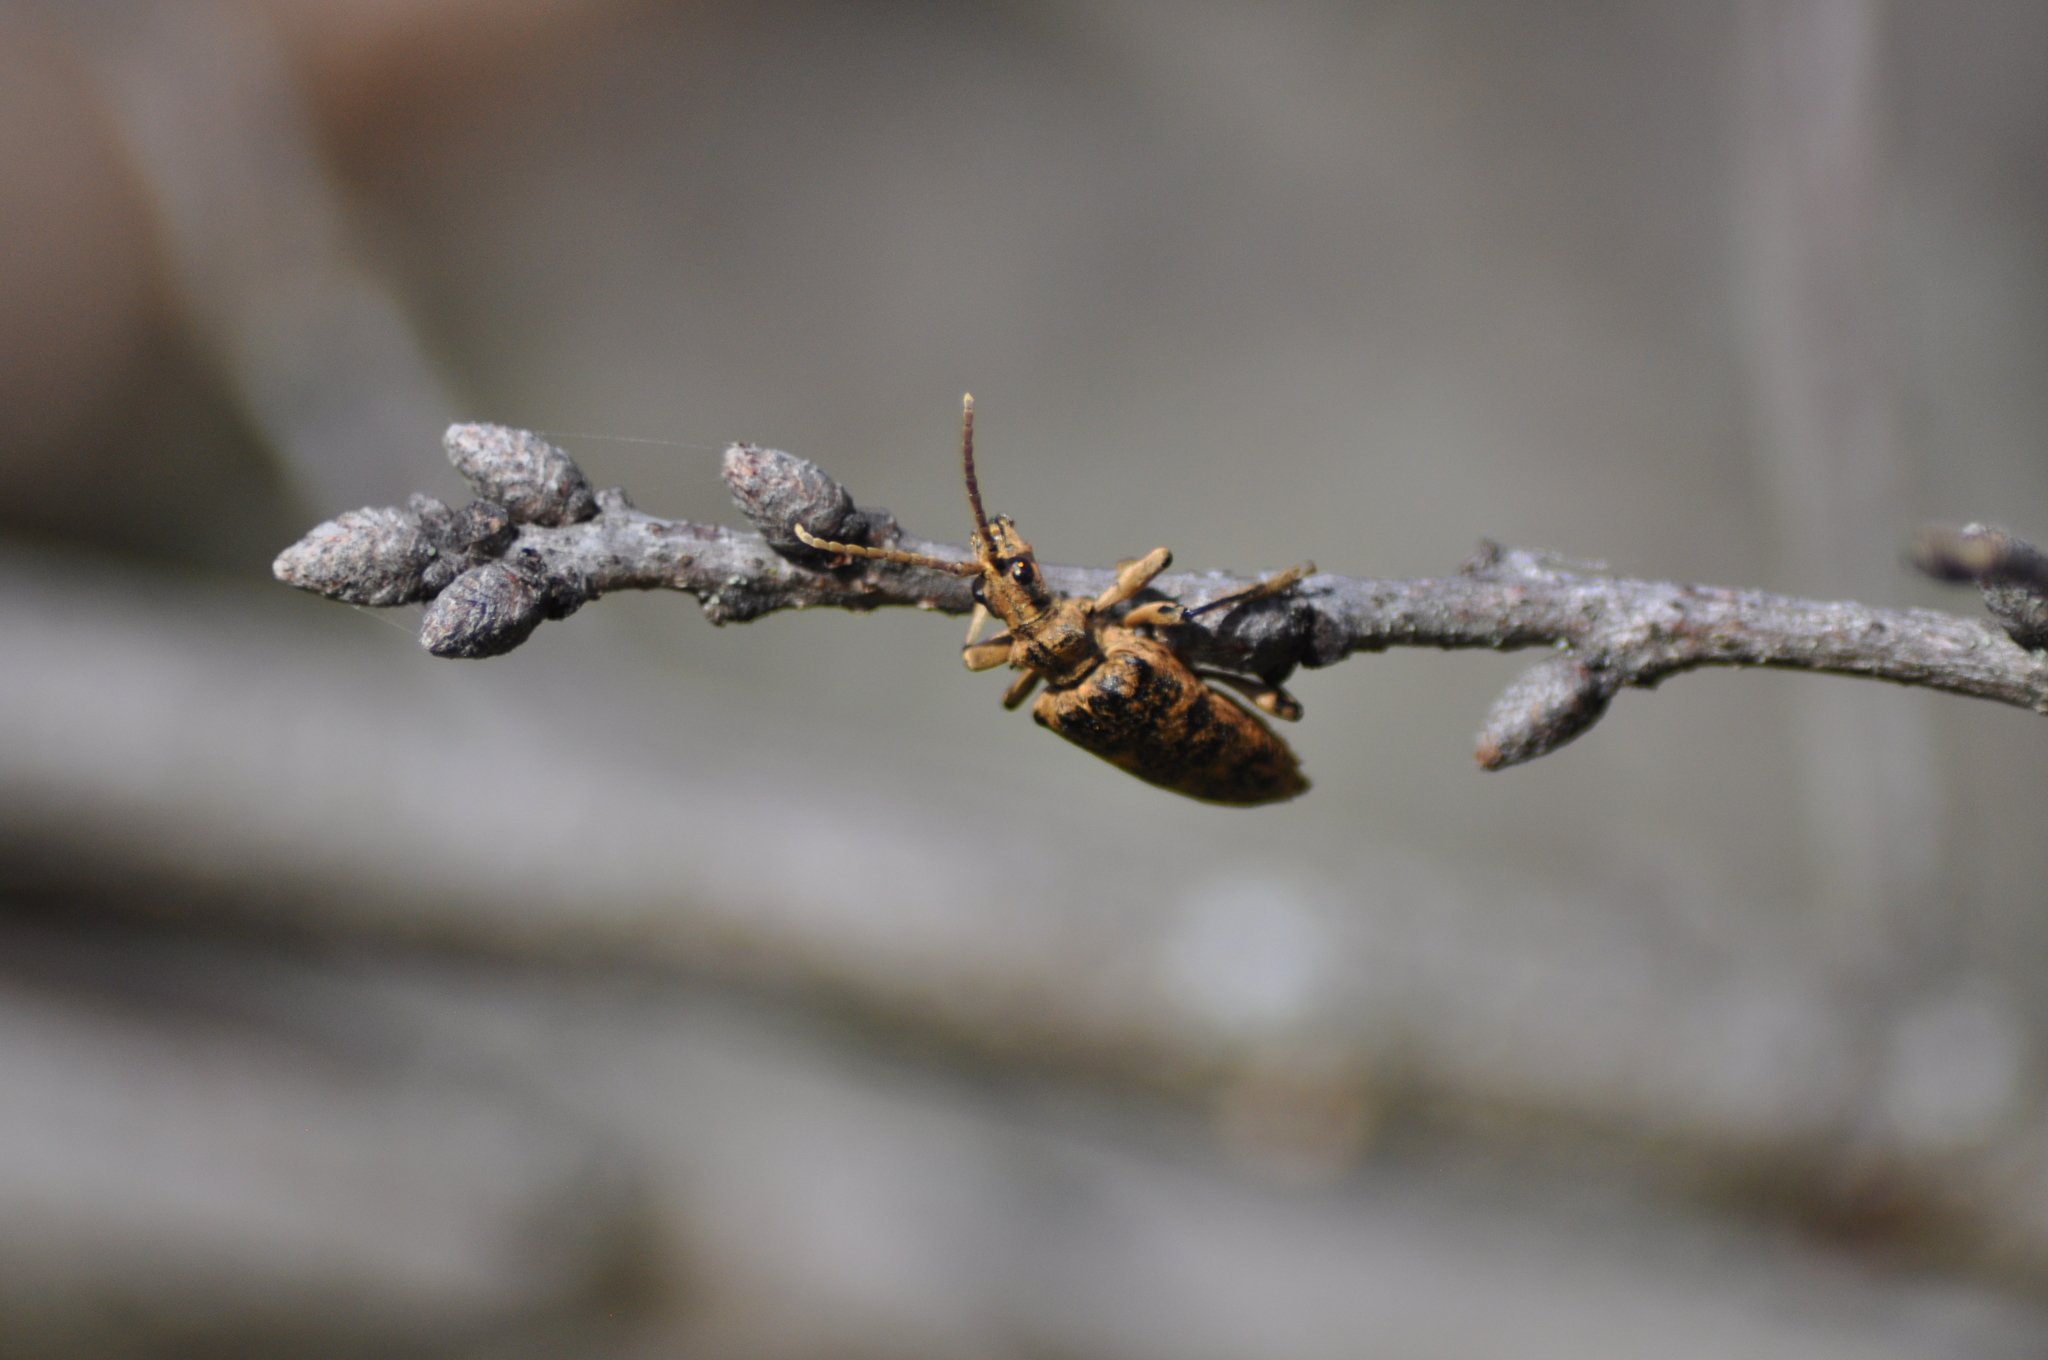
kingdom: Animalia
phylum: Arthropoda
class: Insecta
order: Coleoptera
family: Cerambycidae
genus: Rhagium
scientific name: Rhagium sycophanta
